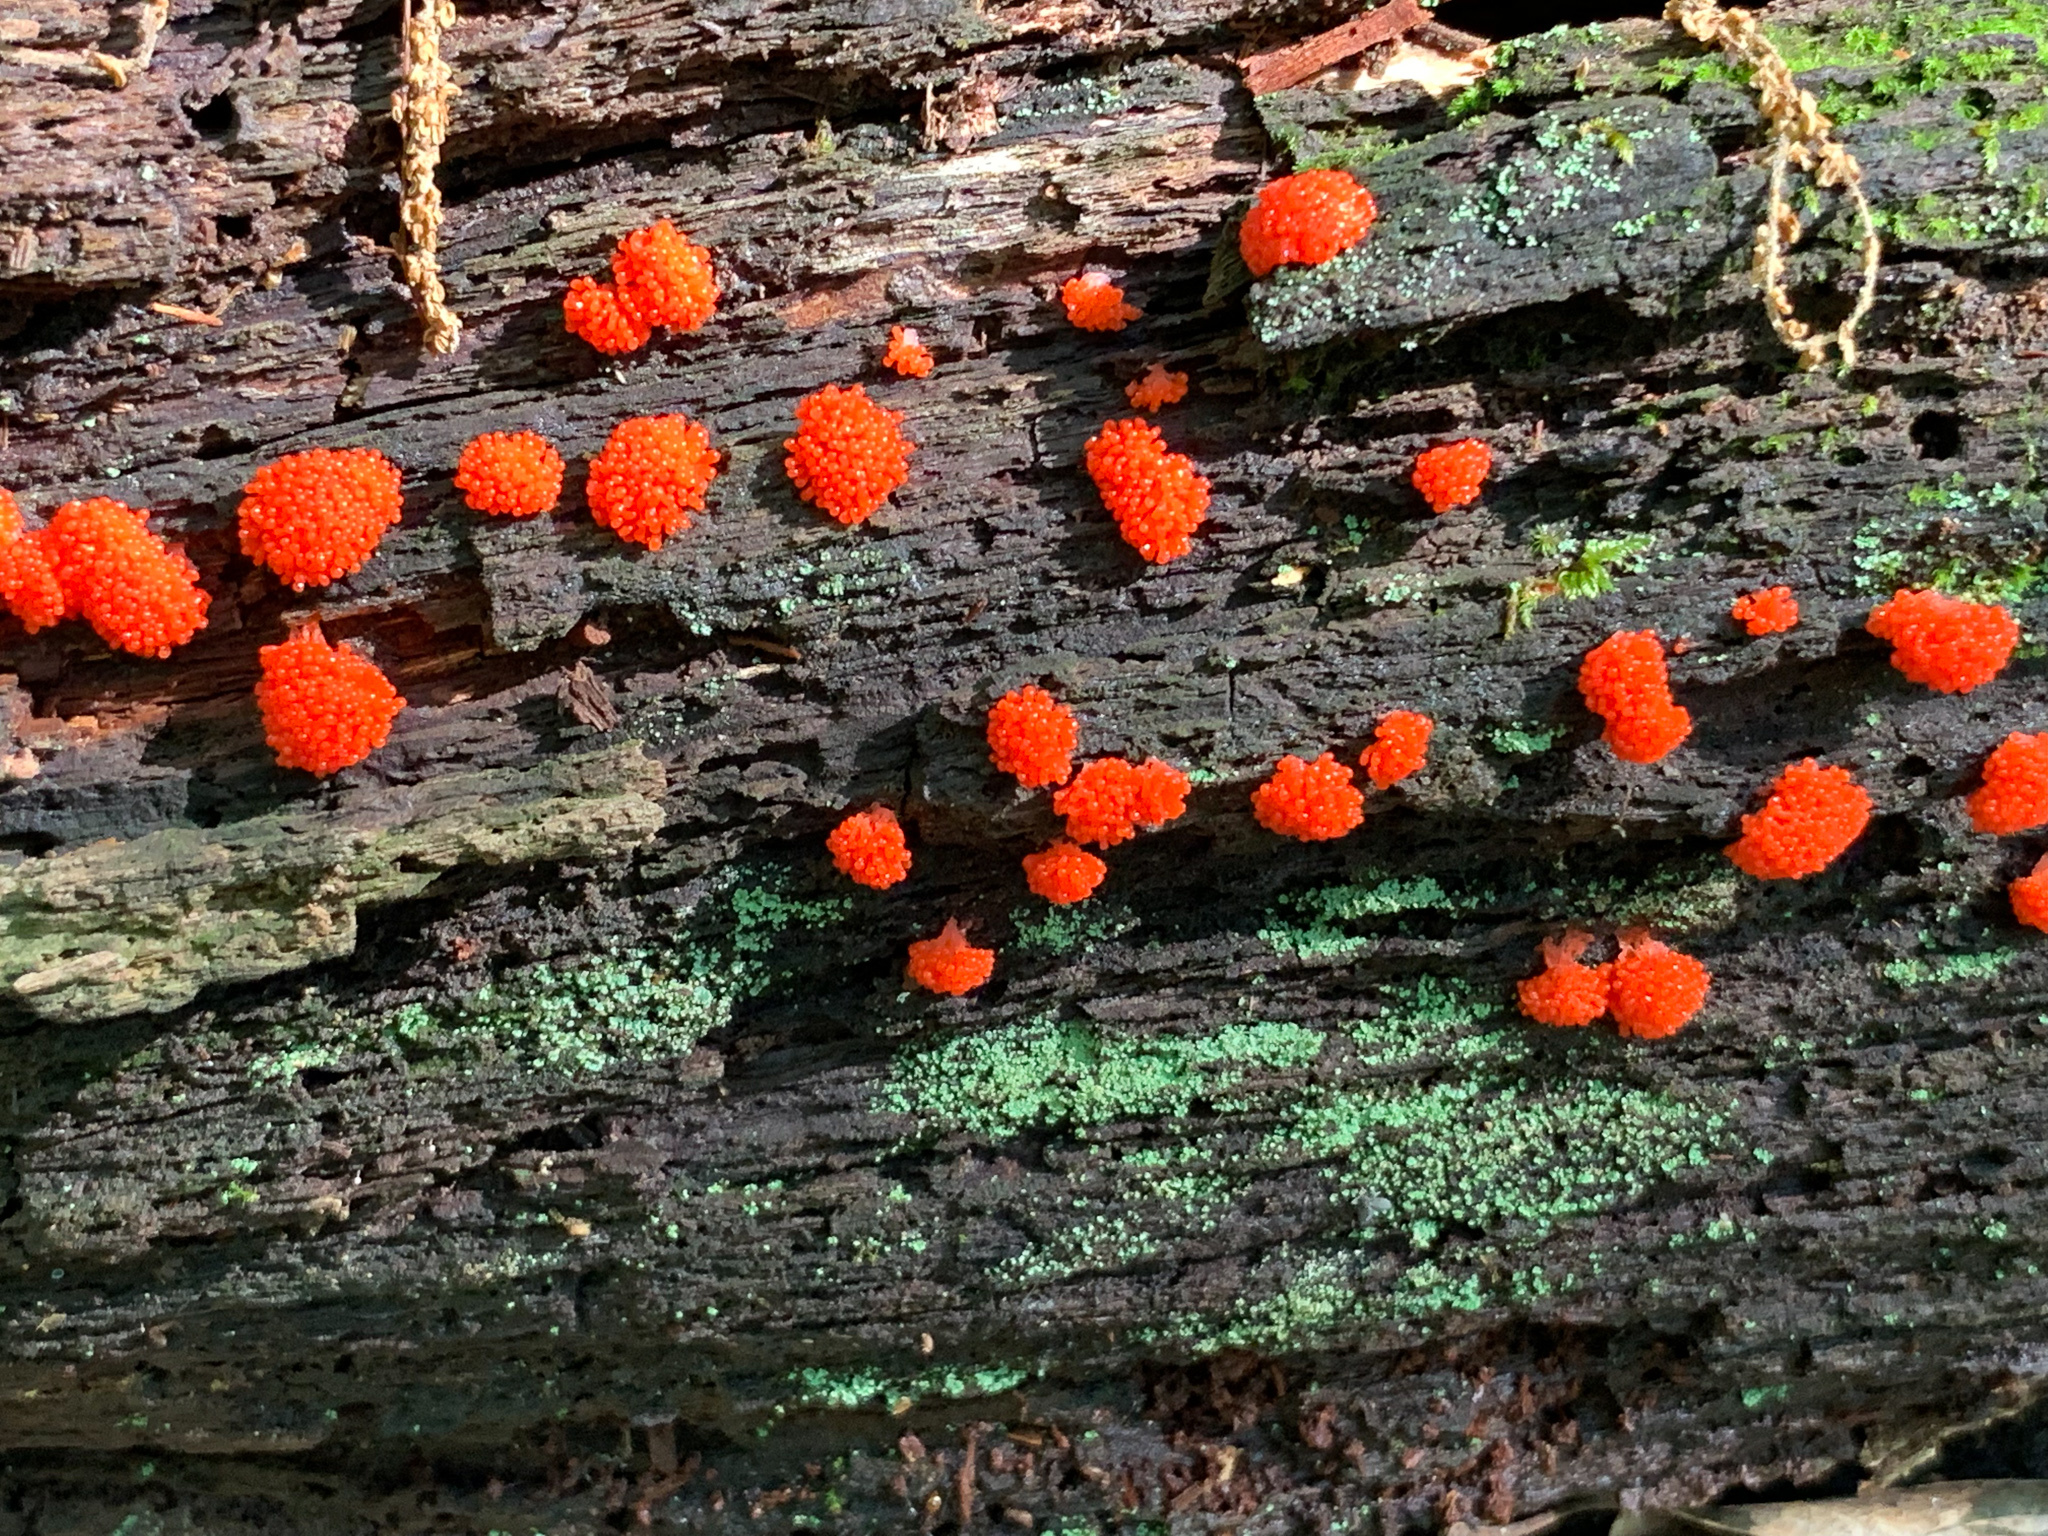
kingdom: Protozoa
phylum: Mycetozoa
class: Myxomycetes
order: Cribrariales
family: Tubiferaceae
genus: Tubifera
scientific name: Tubifera ferruginosa
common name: Red raspberry slime mold
